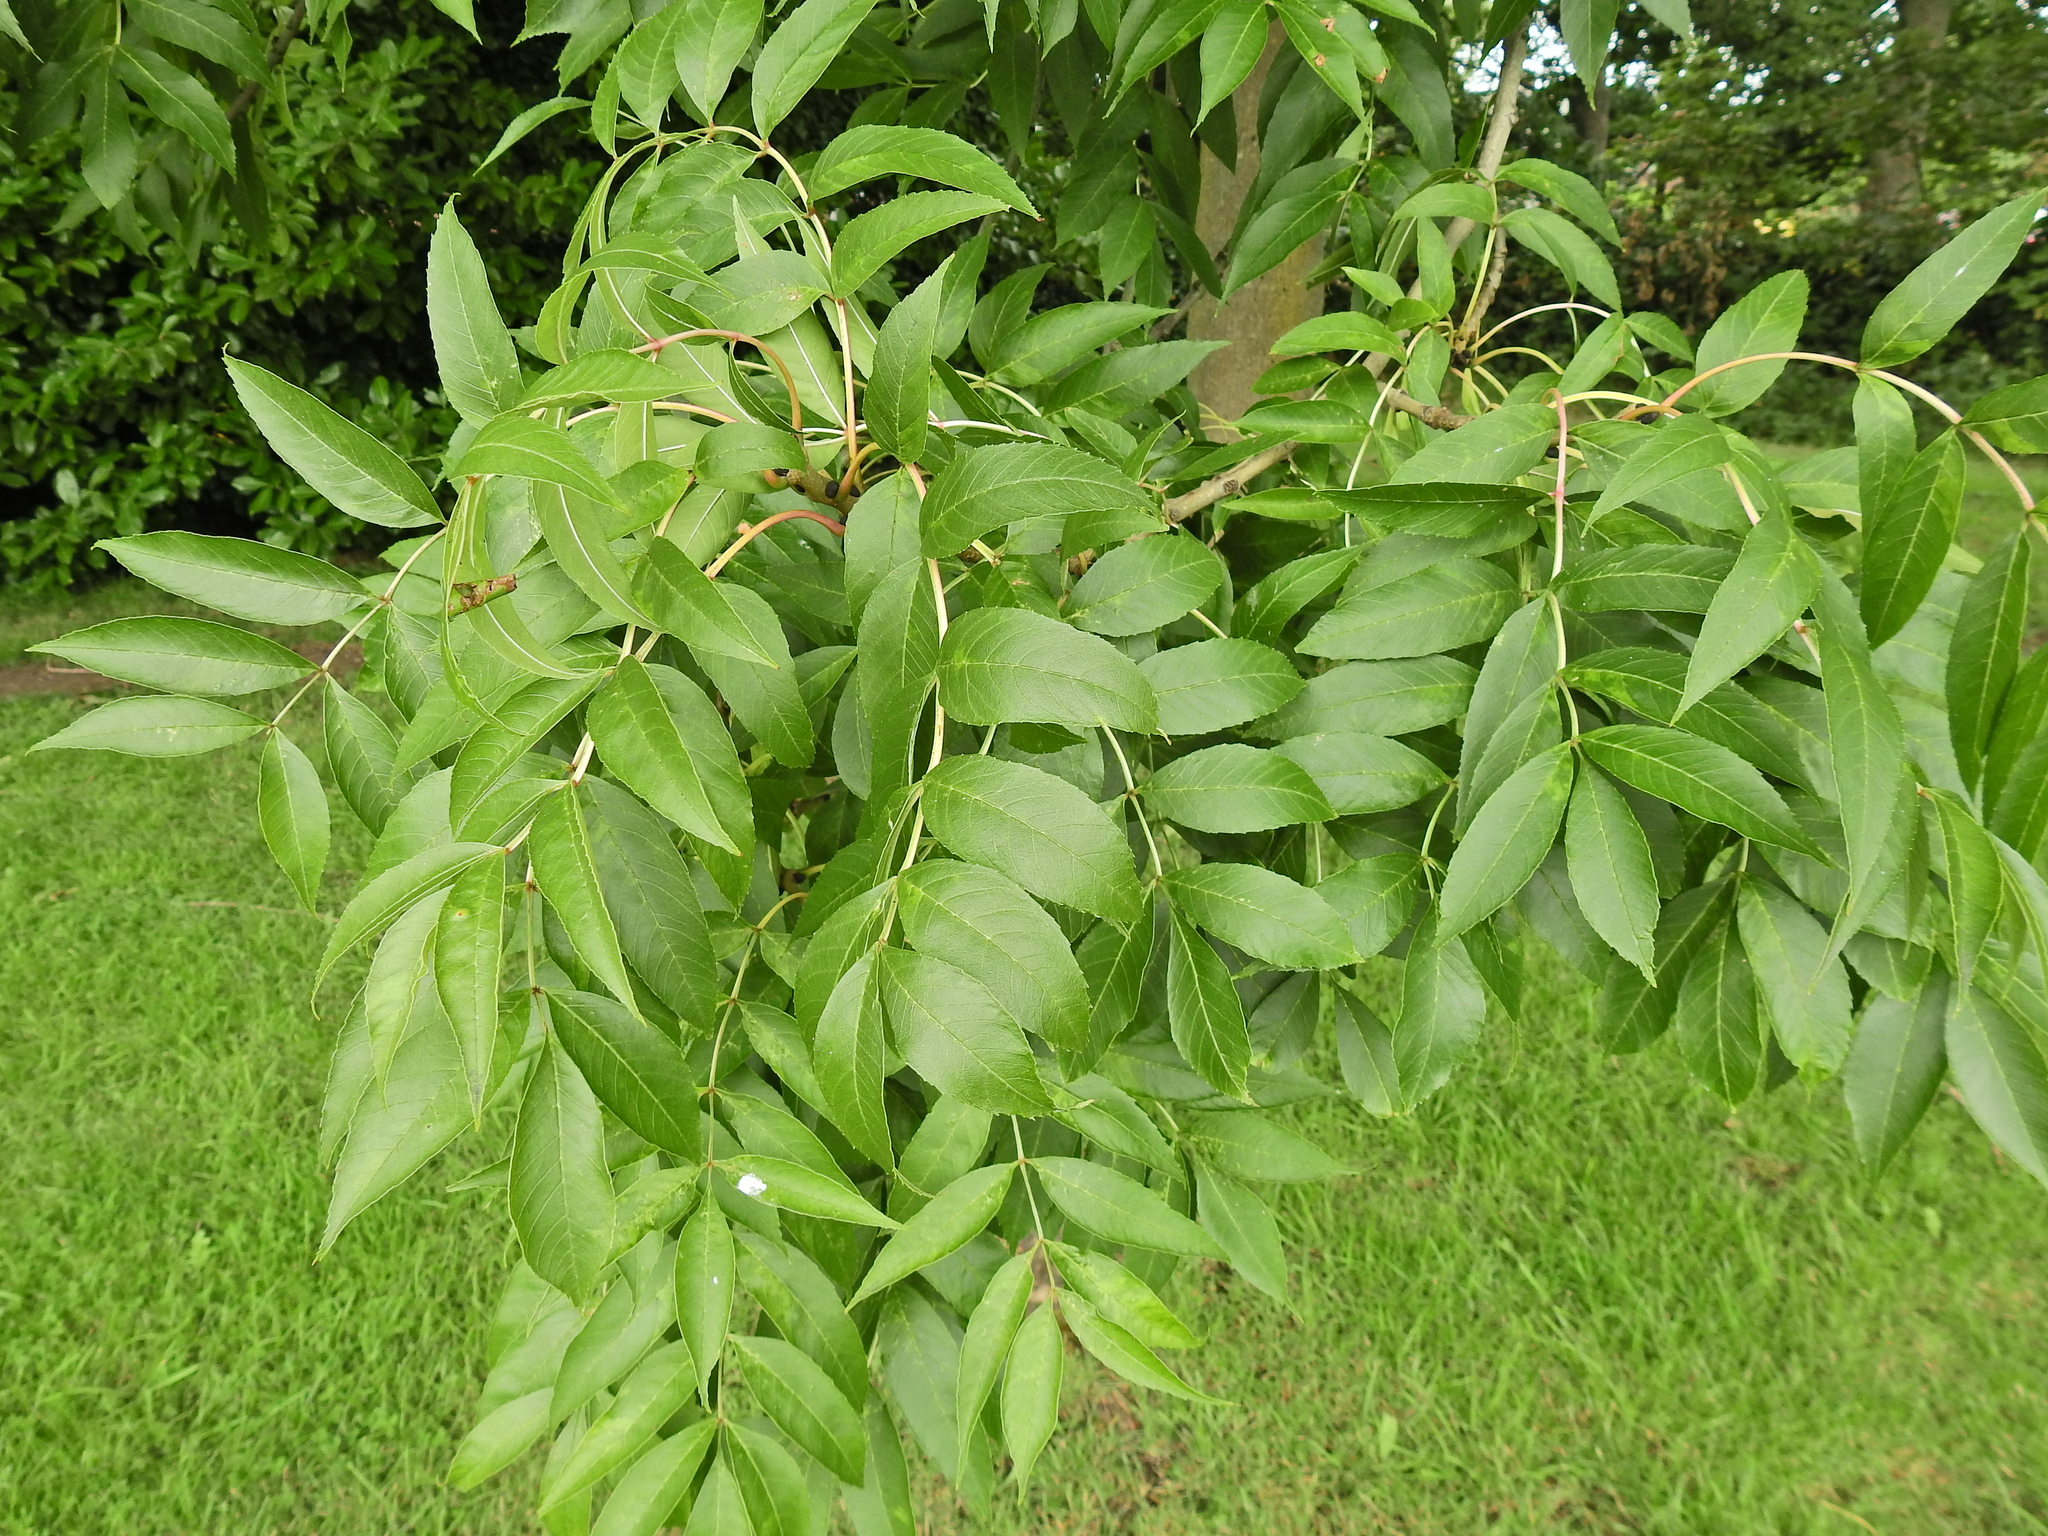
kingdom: Plantae
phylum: Tracheophyta
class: Magnoliopsida
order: Lamiales
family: Oleaceae
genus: Fraxinus
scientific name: Fraxinus excelsior
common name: European ash
